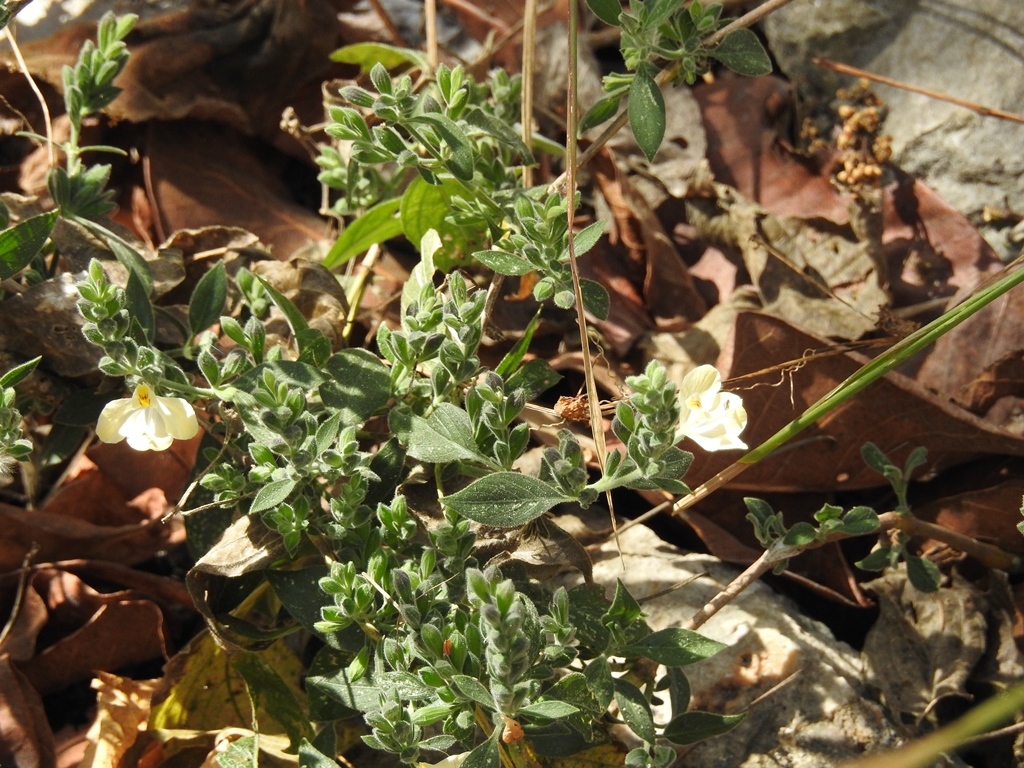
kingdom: Plantae
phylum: Tracheophyta
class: Magnoliopsida
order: Lamiales
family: Acanthaceae
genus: Henrya
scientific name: Henrya insularis
